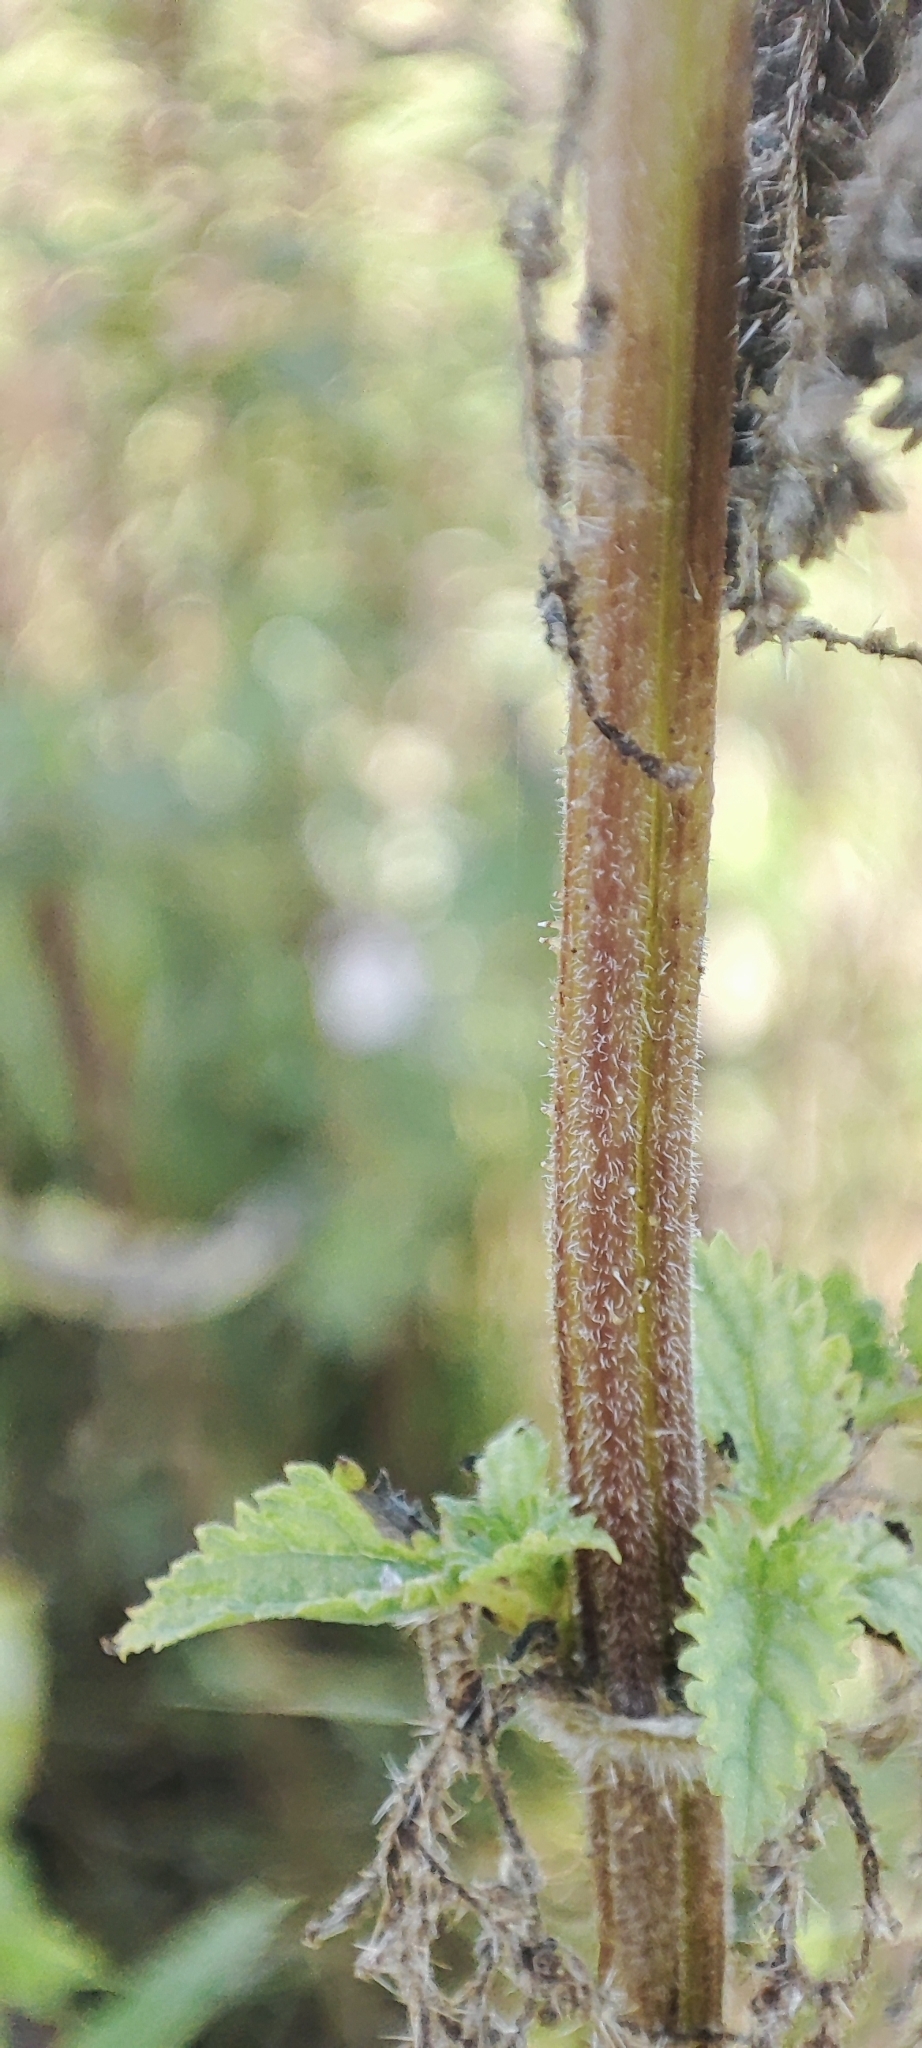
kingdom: Plantae
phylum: Tracheophyta
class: Magnoliopsida
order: Rosales
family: Urticaceae
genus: Urtica
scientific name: Urtica dioica
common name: Common nettle
